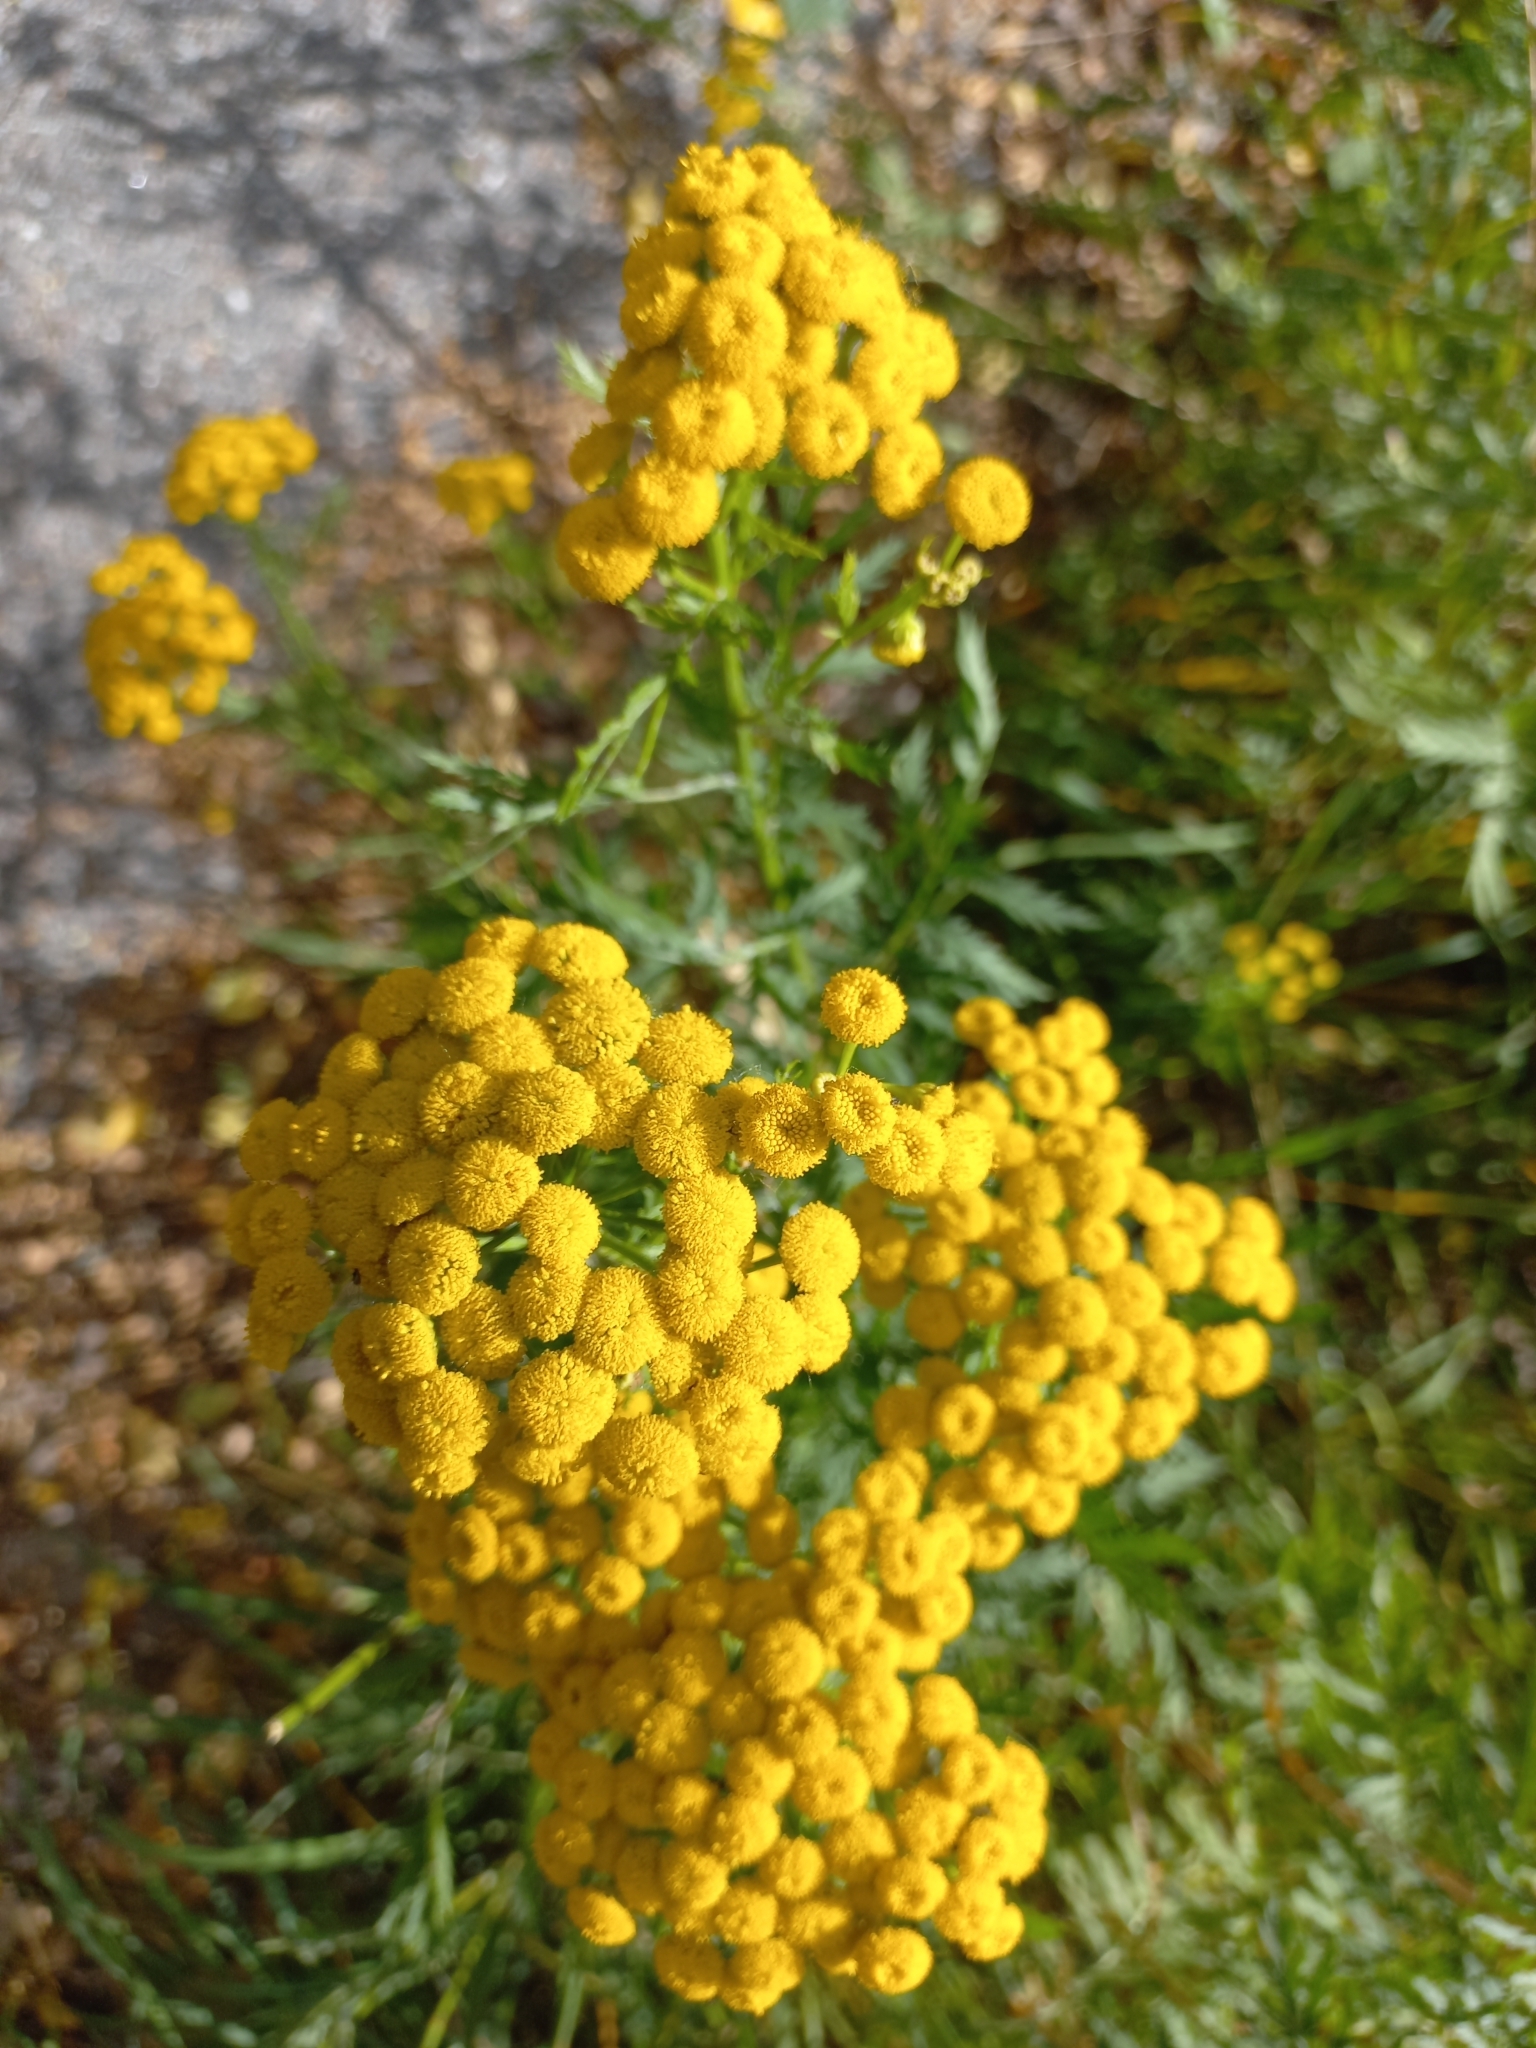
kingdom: Plantae
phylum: Tracheophyta
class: Magnoliopsida
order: Asterales
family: Asteraceae
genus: Tanacetum
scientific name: Tanacetum vulgare
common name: Common tansy
